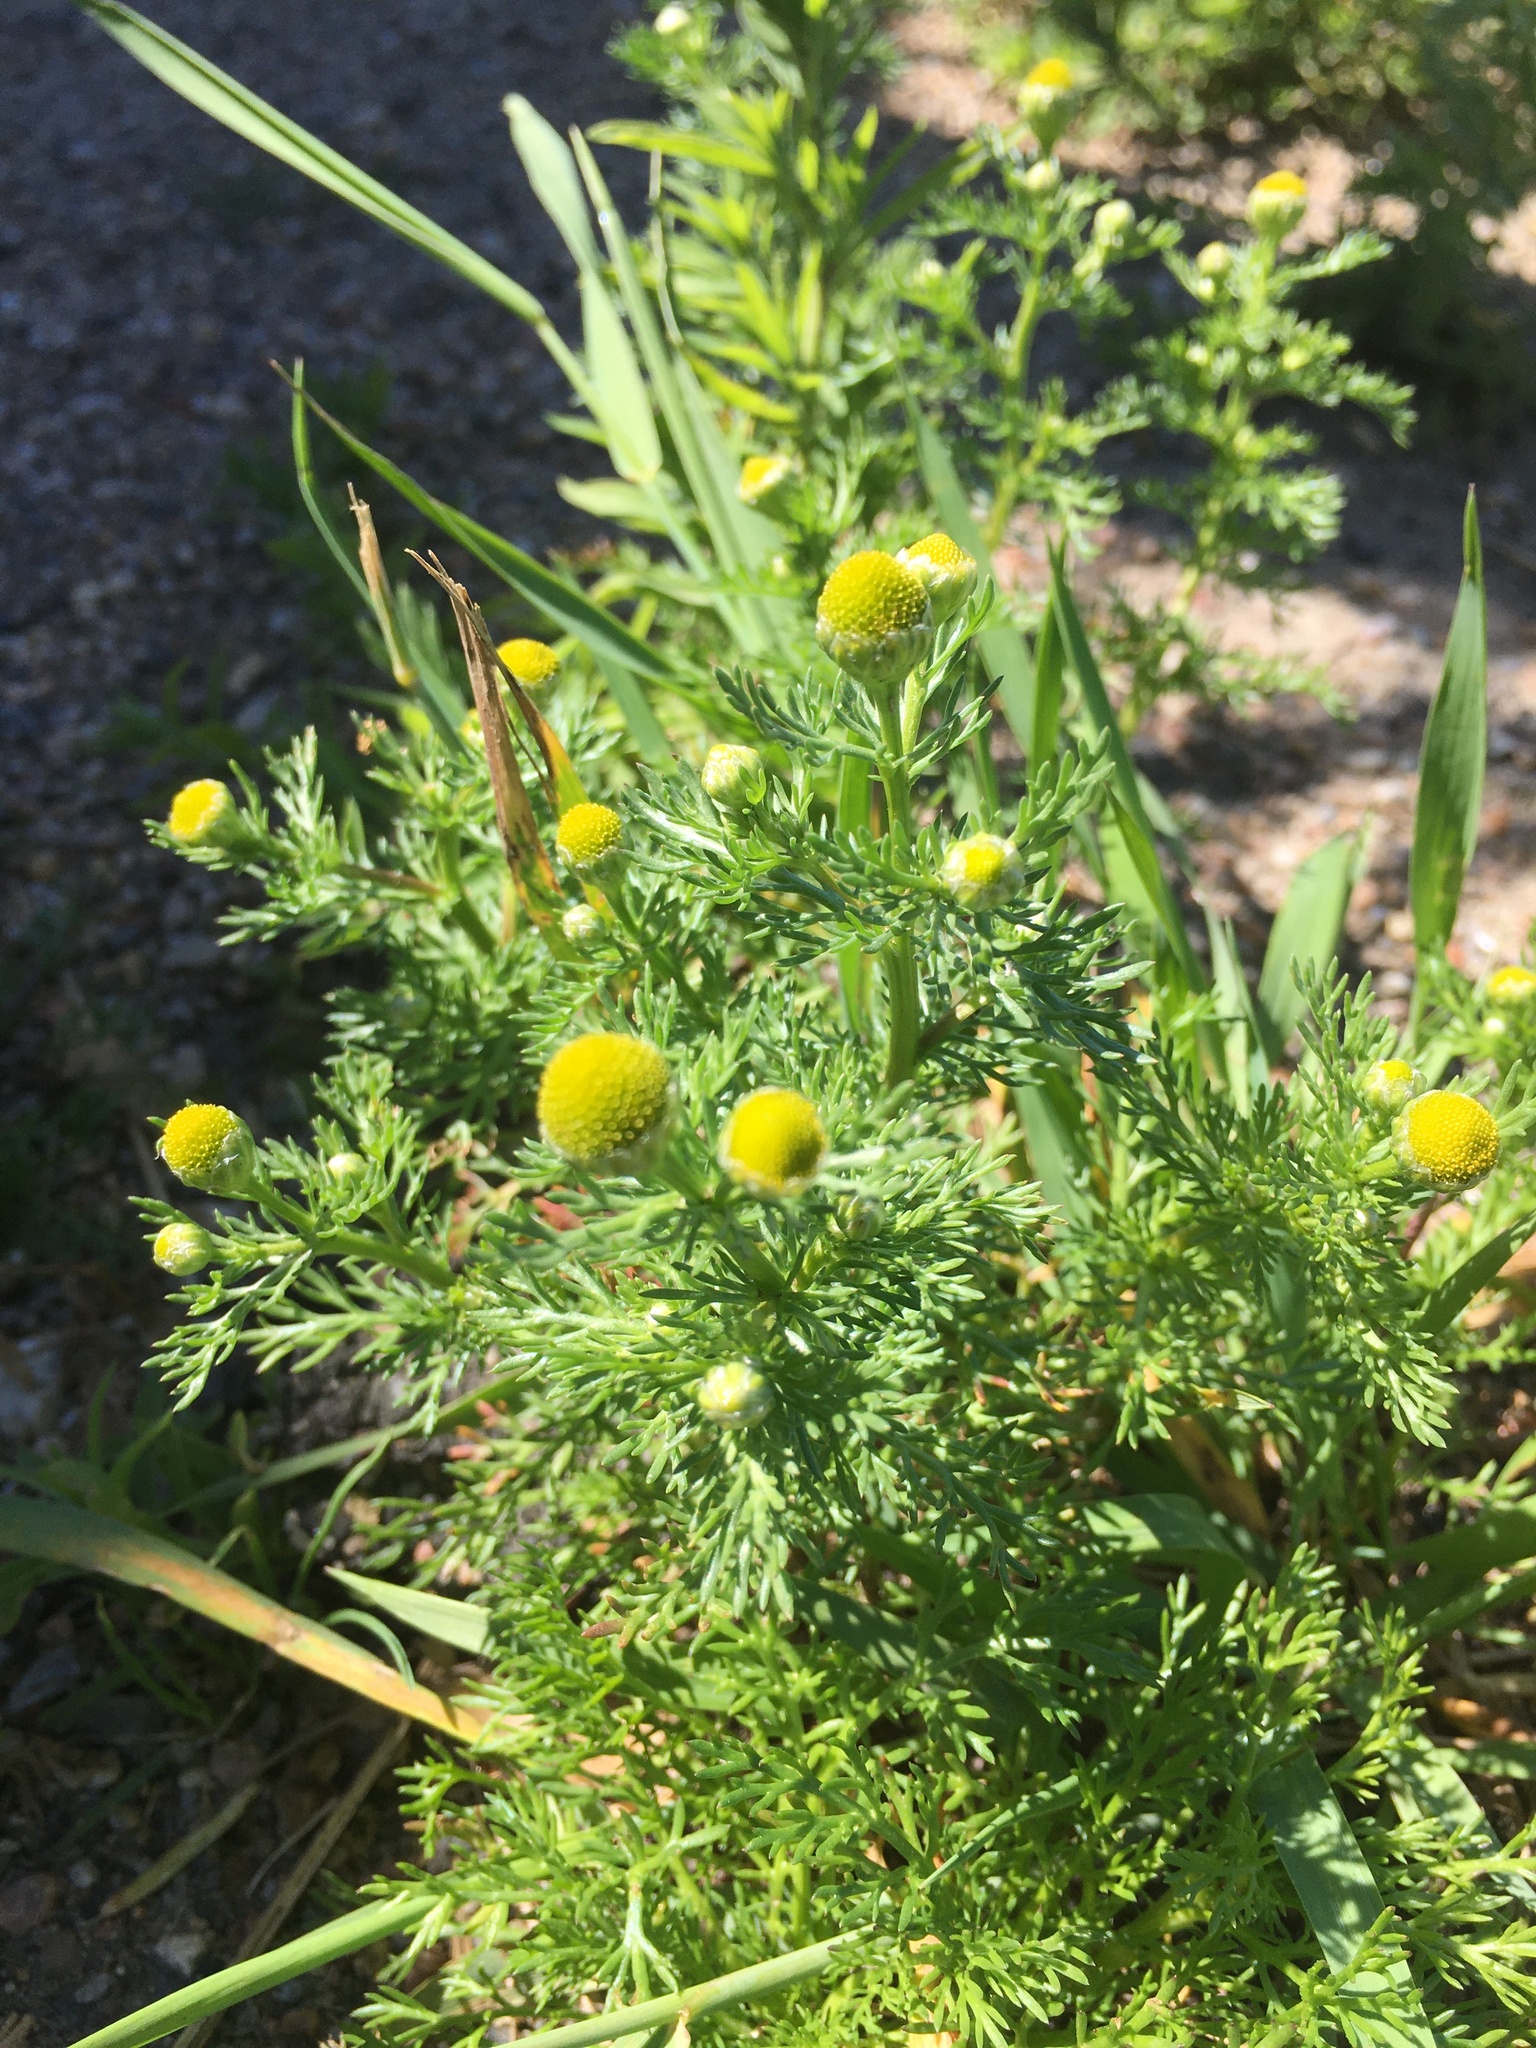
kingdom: Plantae
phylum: Tracheophyta
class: Magnoliopsida
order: Asterales
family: Asteraceae
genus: Matricaria
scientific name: Matricaria discoidea
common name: Disc mayweed
